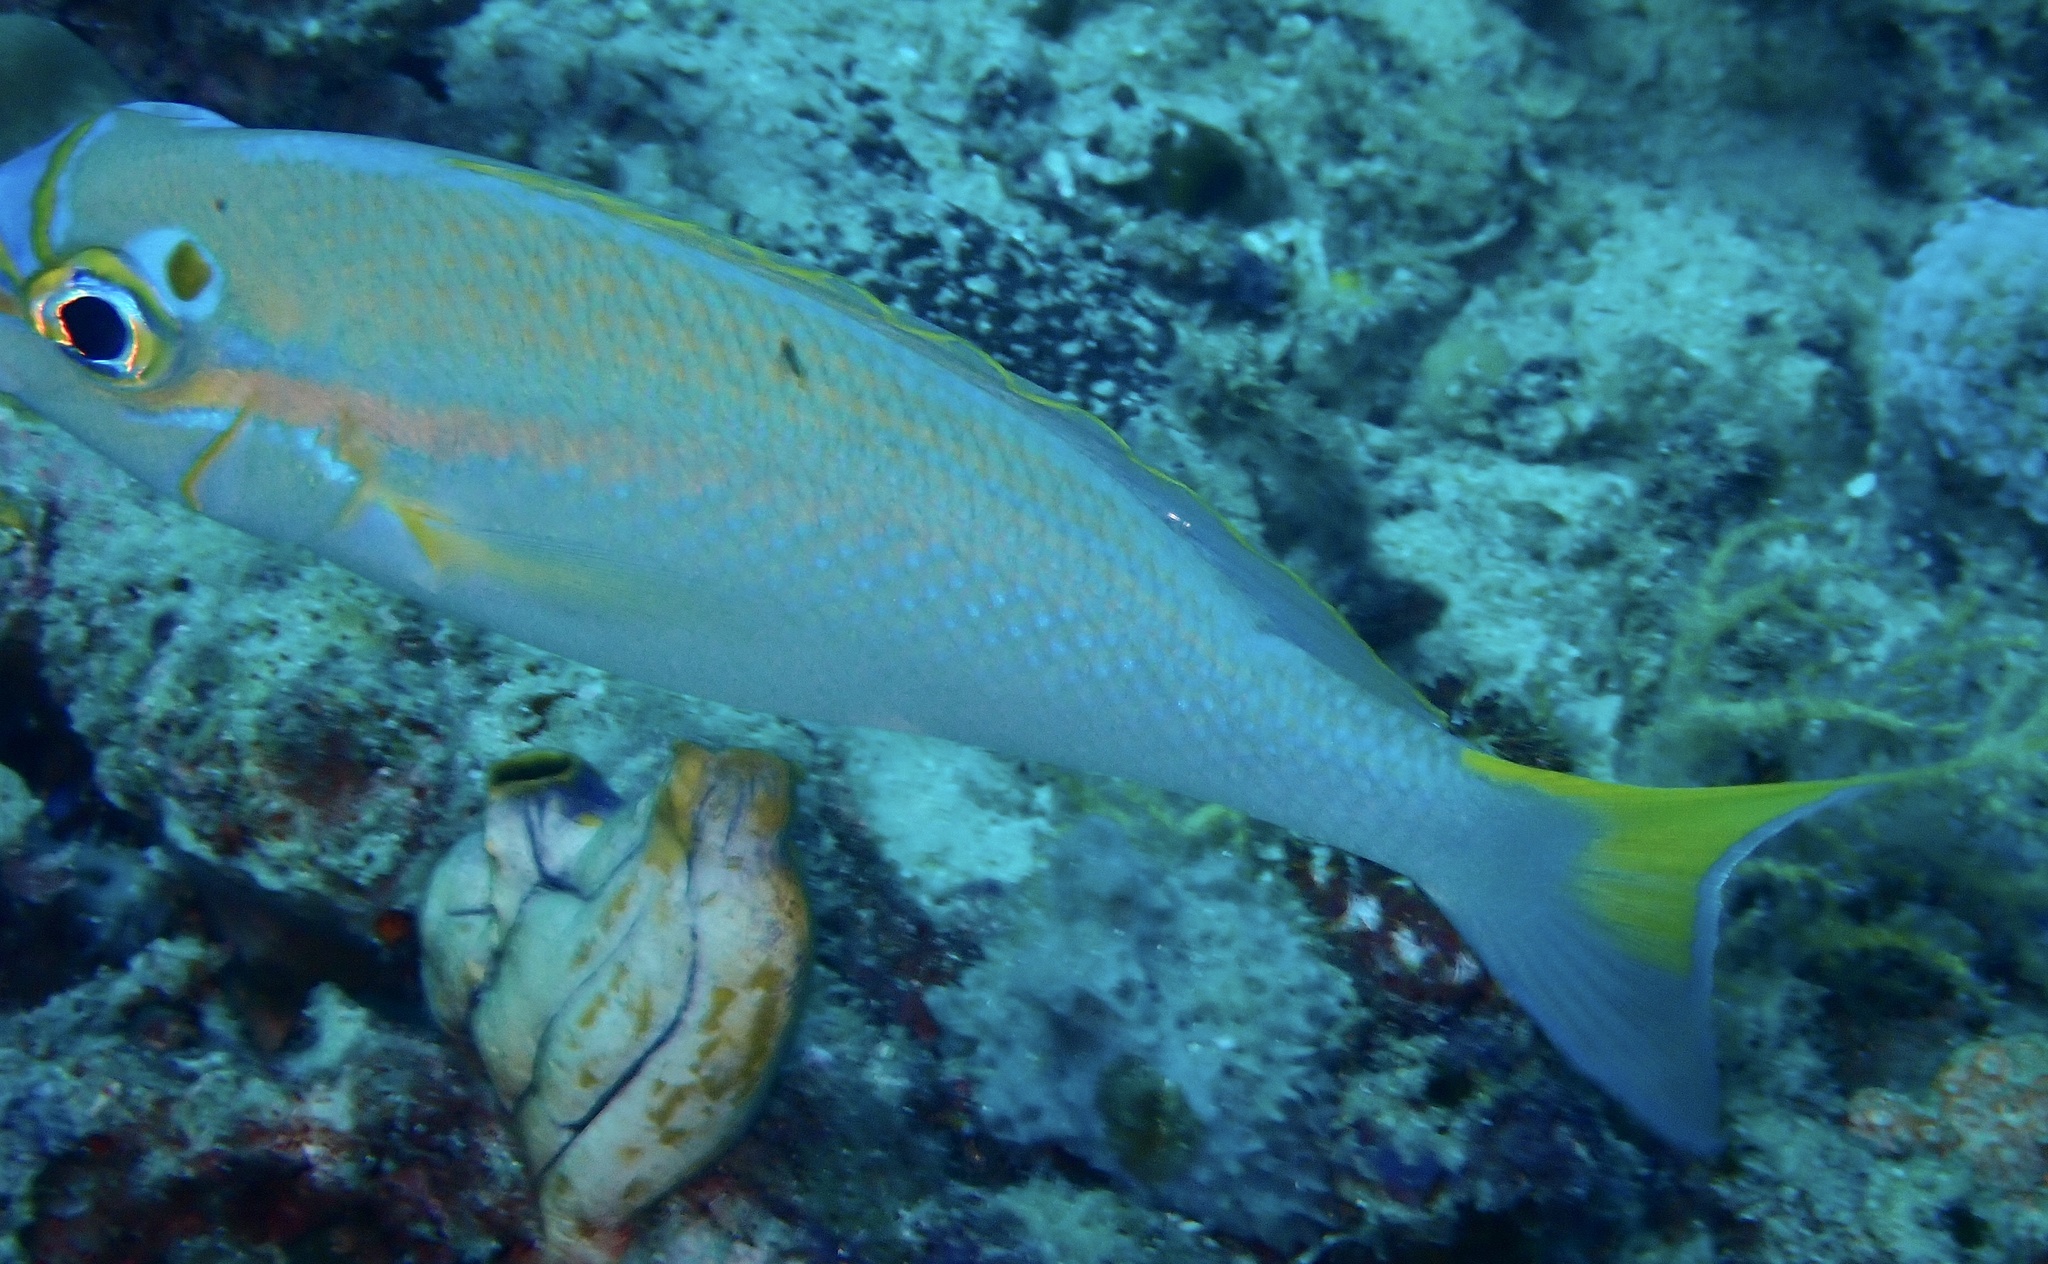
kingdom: Animalia
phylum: Chordata
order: Perciformes
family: Nemipteridae
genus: Scolopsis
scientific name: Scolopsis temporalis
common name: Bald-spot monocle bream
